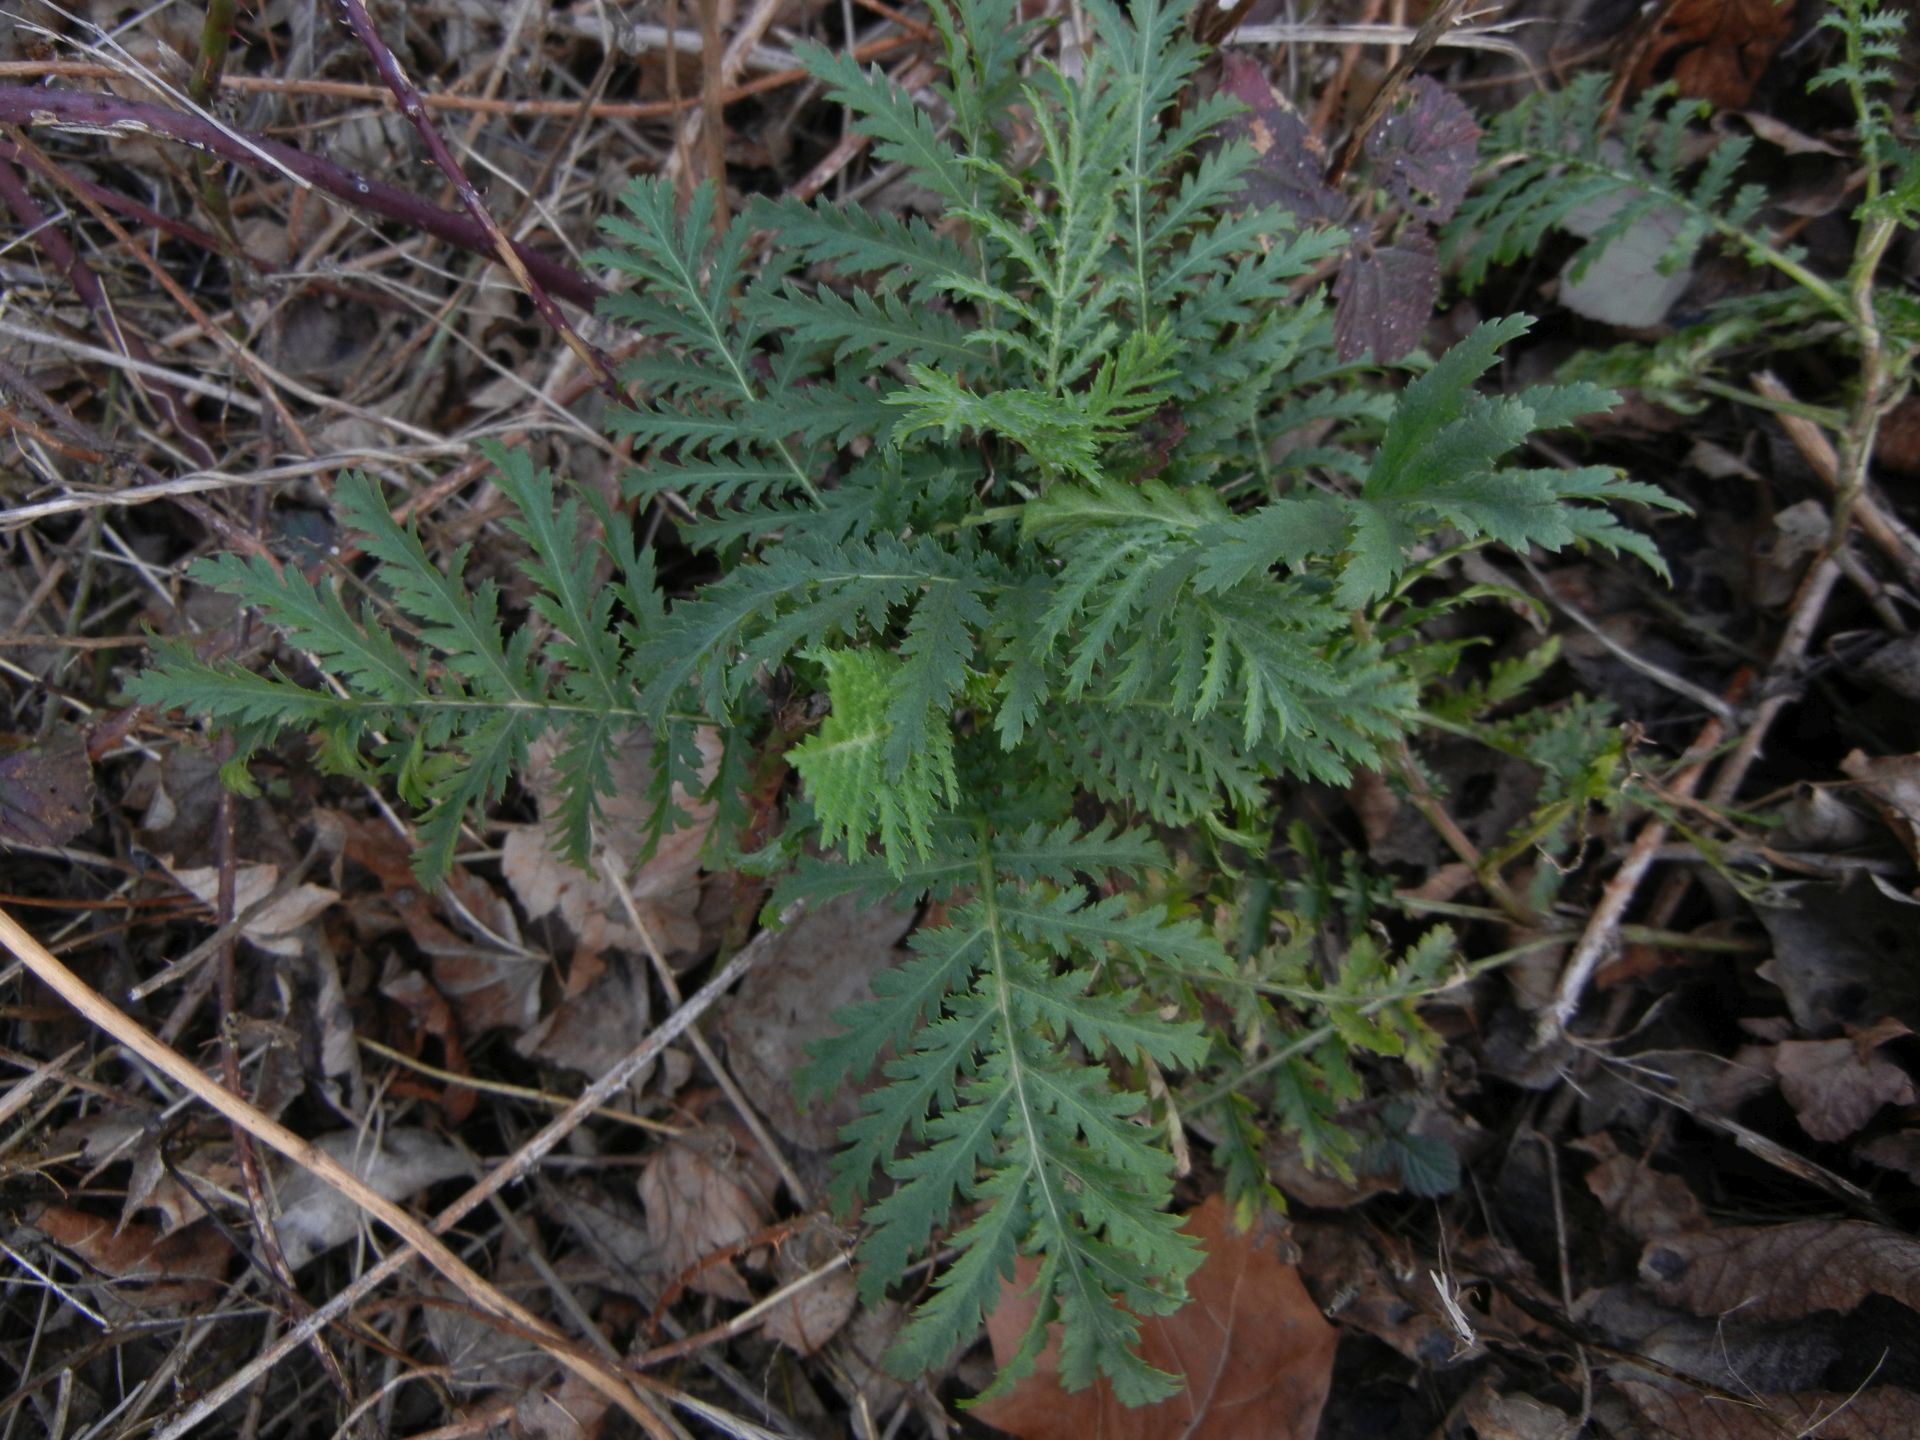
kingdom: Plantae
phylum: Tracheophyta
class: Magnoliopsida
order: Asterales
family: Asteraceae
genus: Tanacetum
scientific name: Tanacetum vulgare
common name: Common tansy
